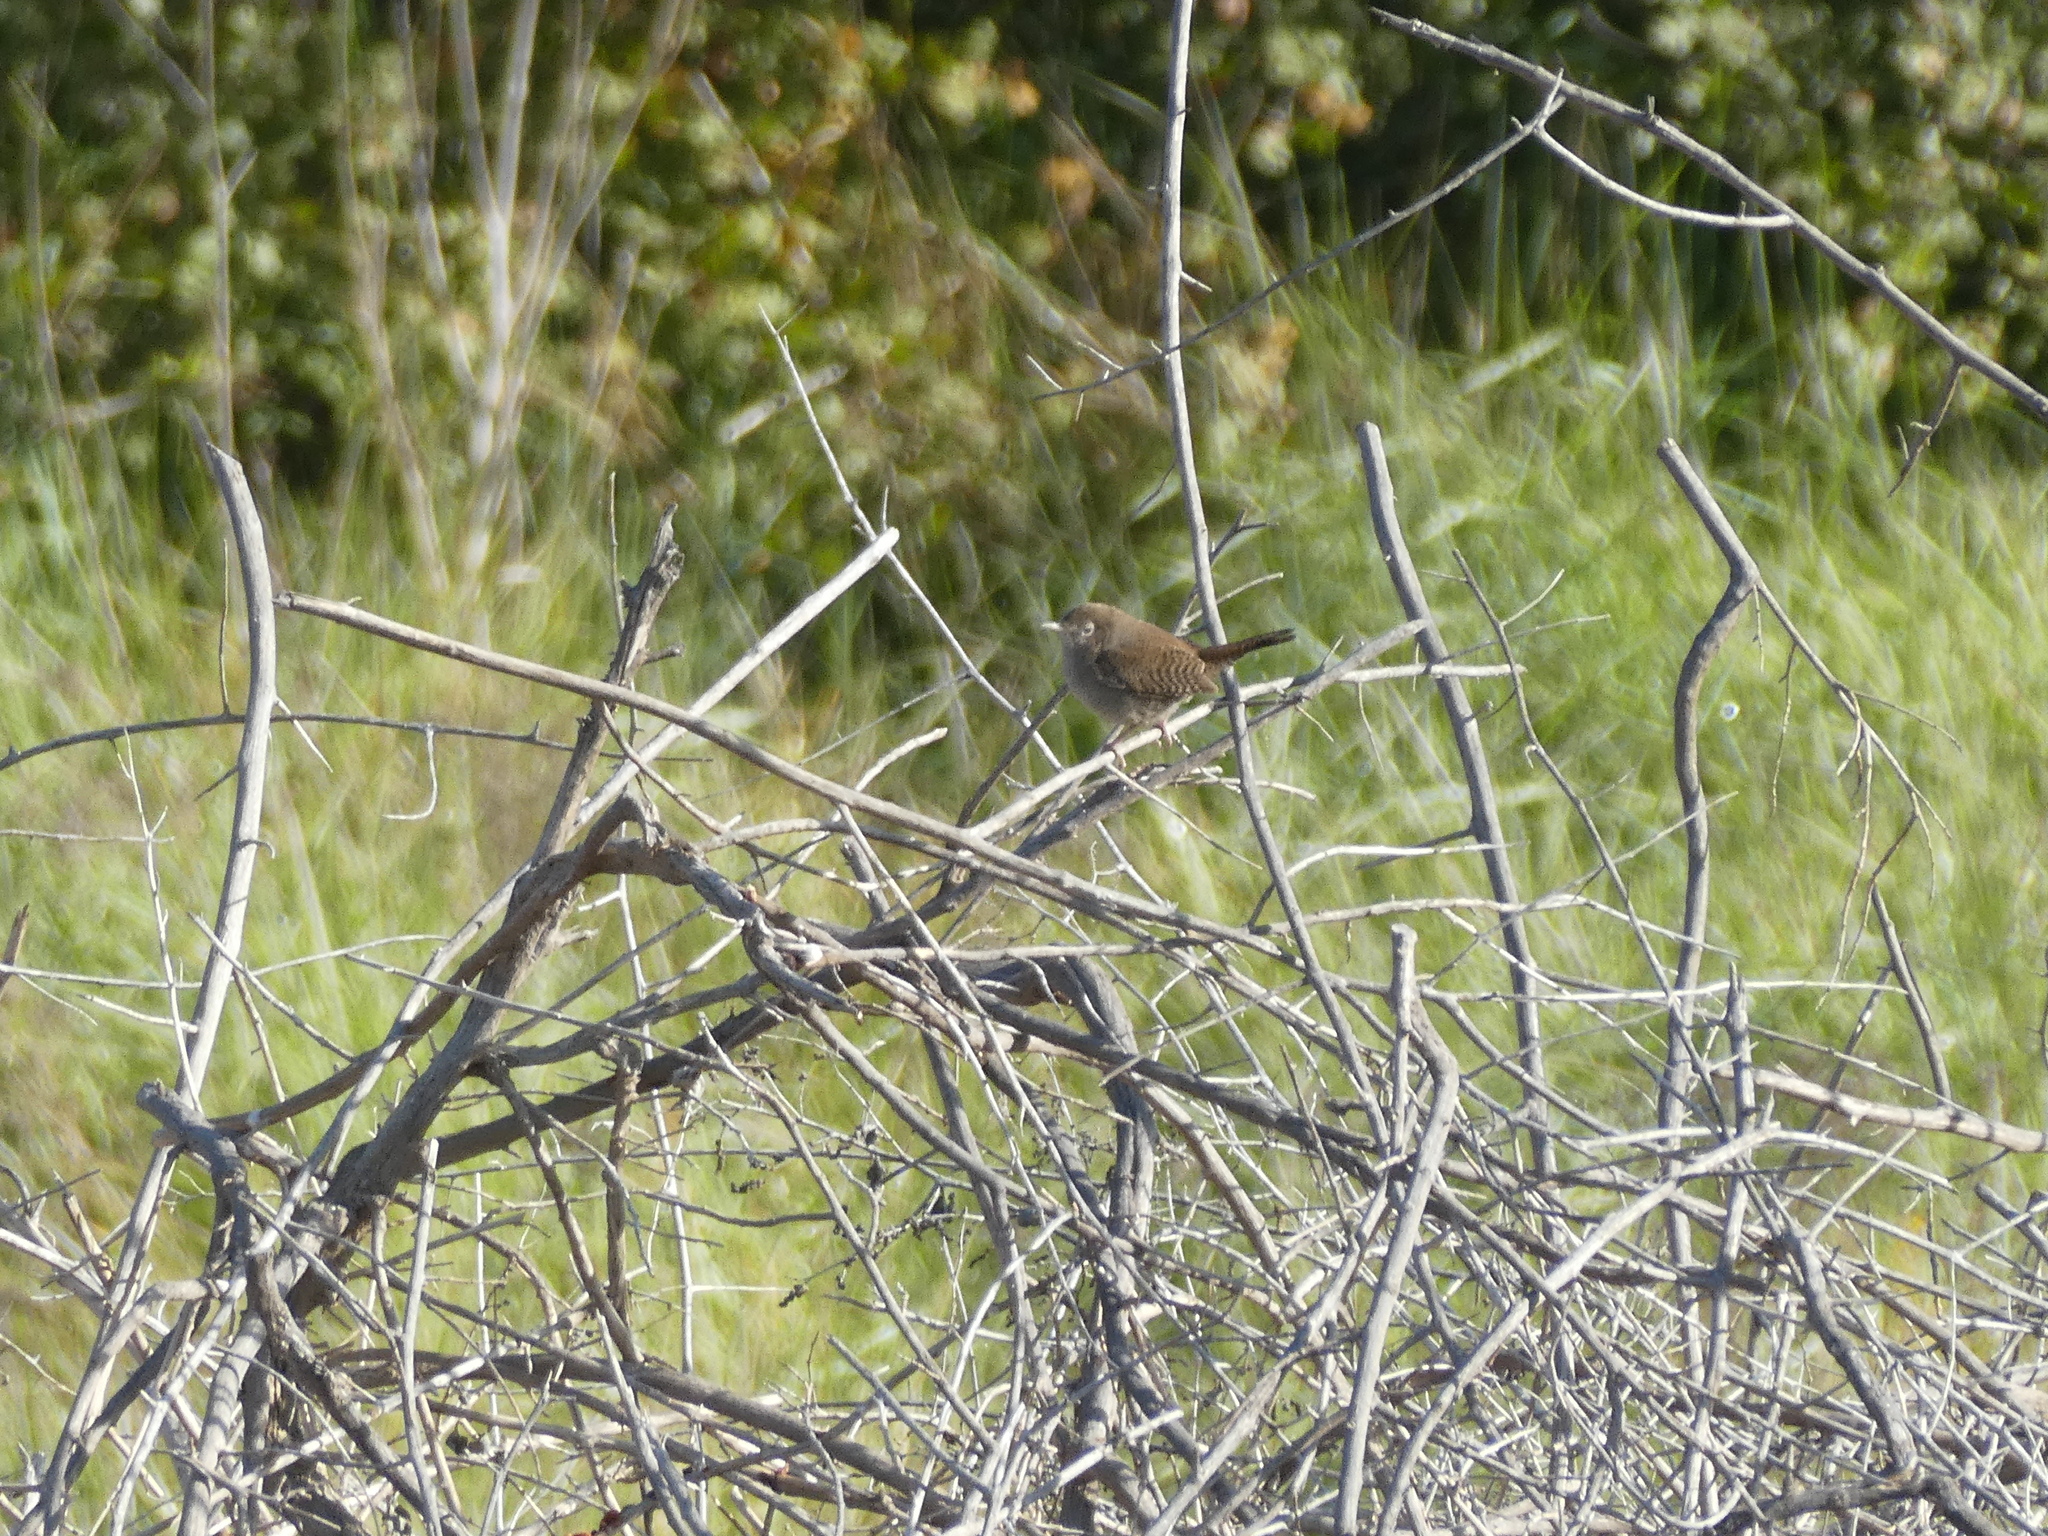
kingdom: Animalia
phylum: Chordata
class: Aves
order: Passeriformes
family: Troglodytidae
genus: Troglodytes
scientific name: Troglodytes aedon
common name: House wren
